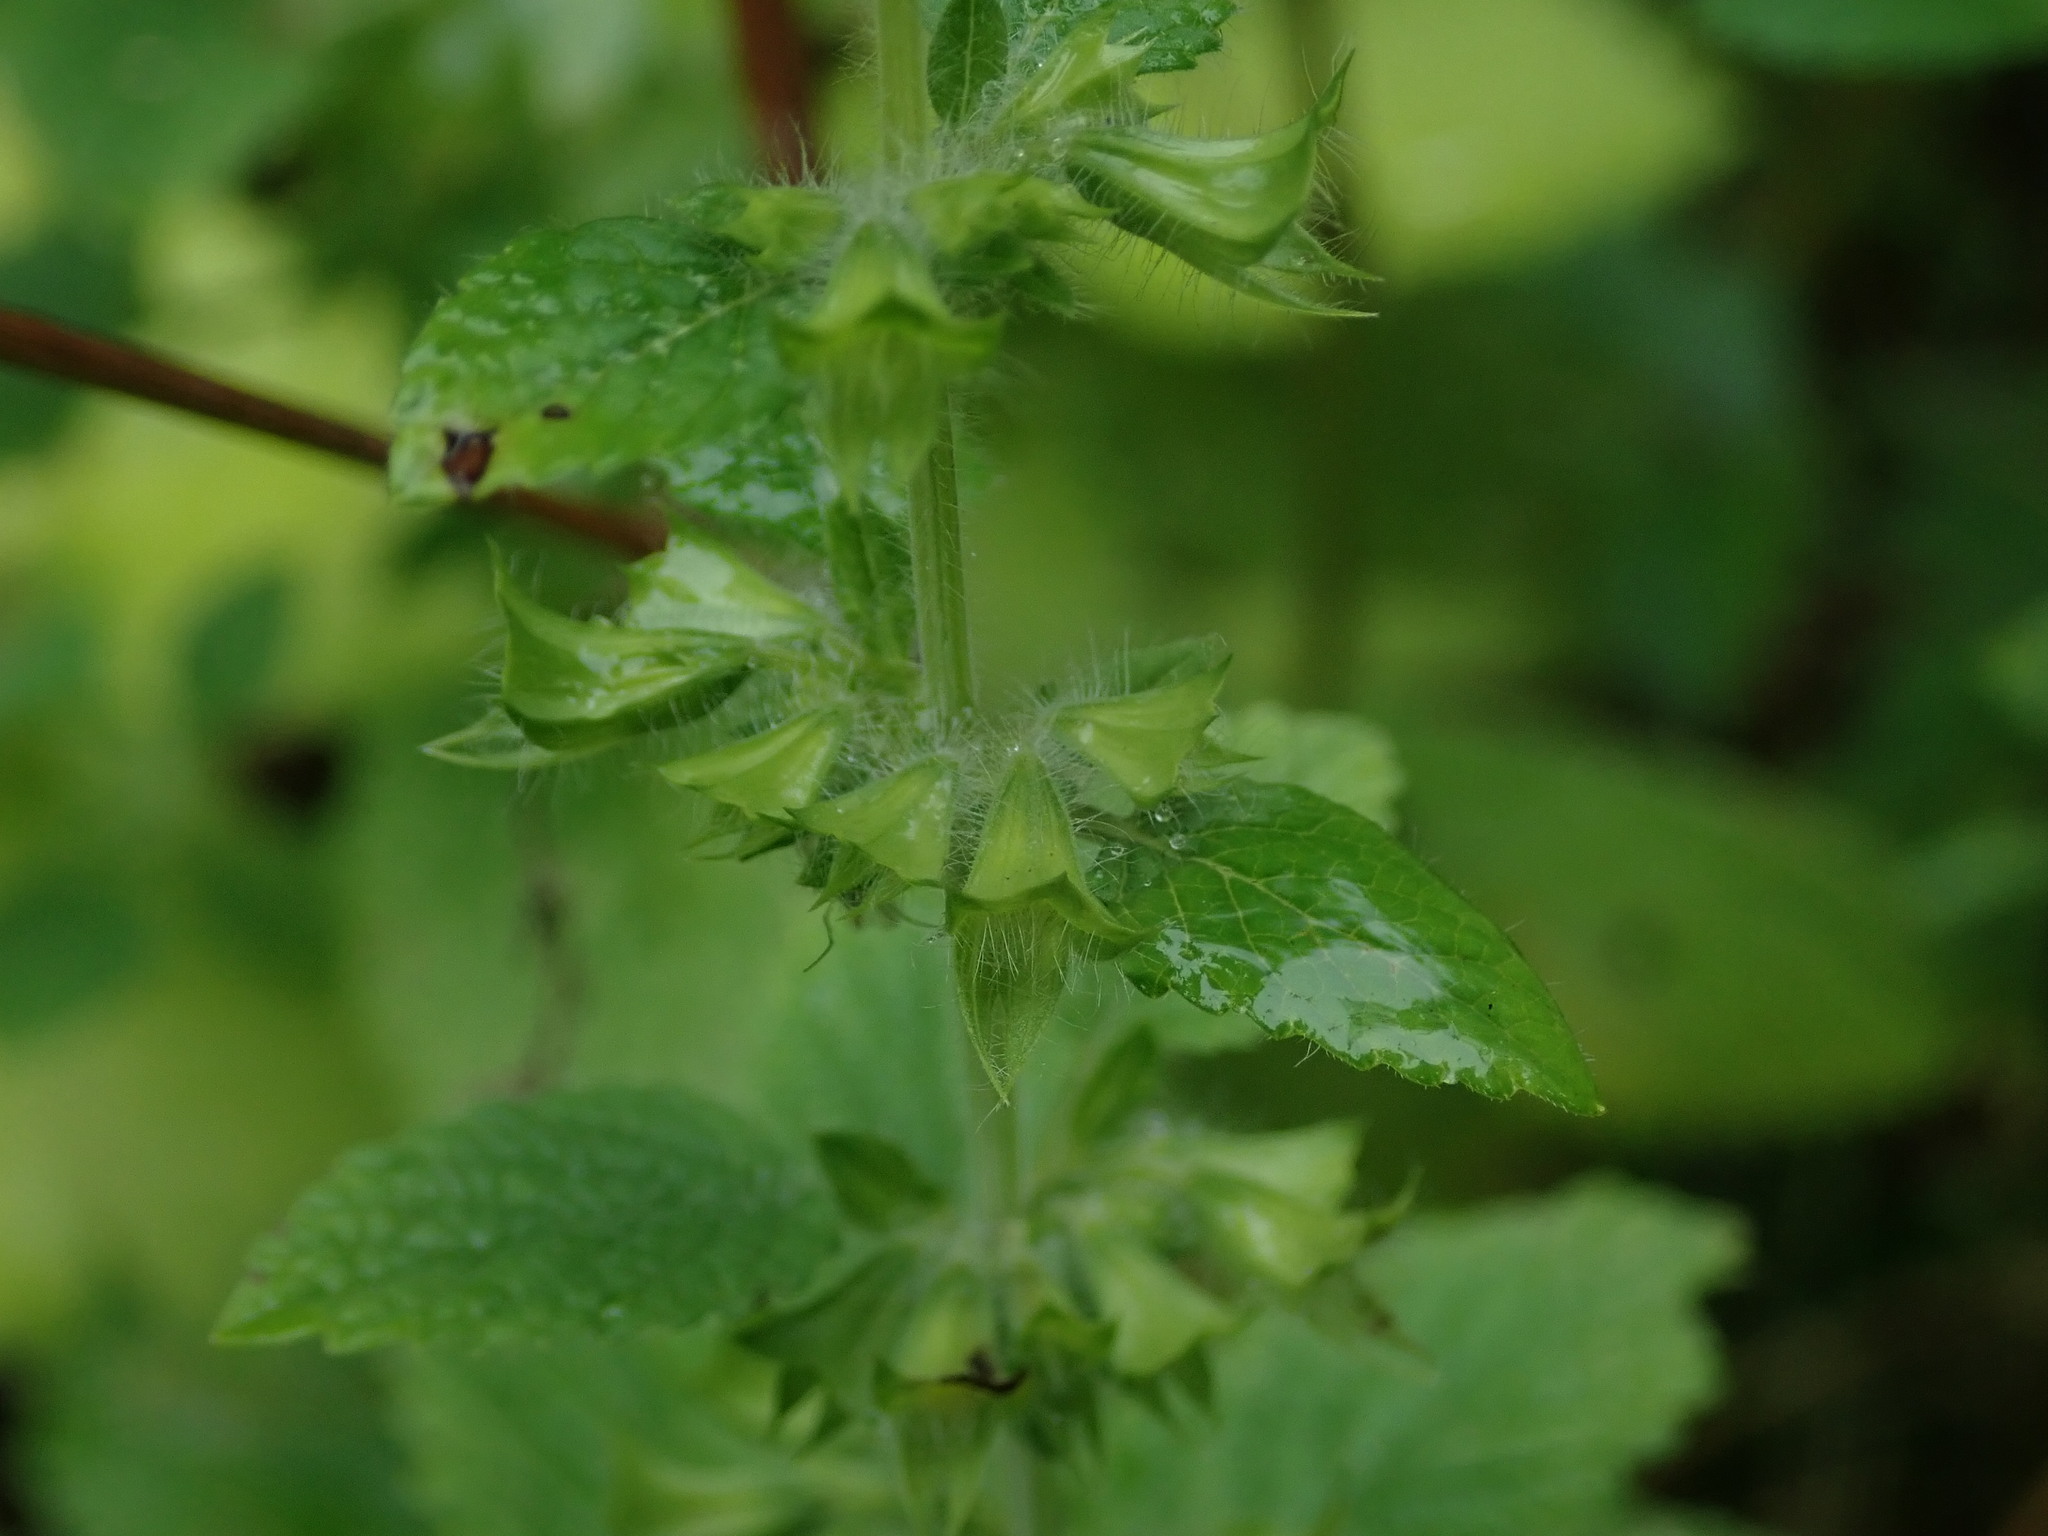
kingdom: Plantae
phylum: Tracheophyta
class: Magnoliopsida
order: Lamiales
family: Lamiaceae
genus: Melissa
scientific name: Melissa officinalis
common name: Balm
